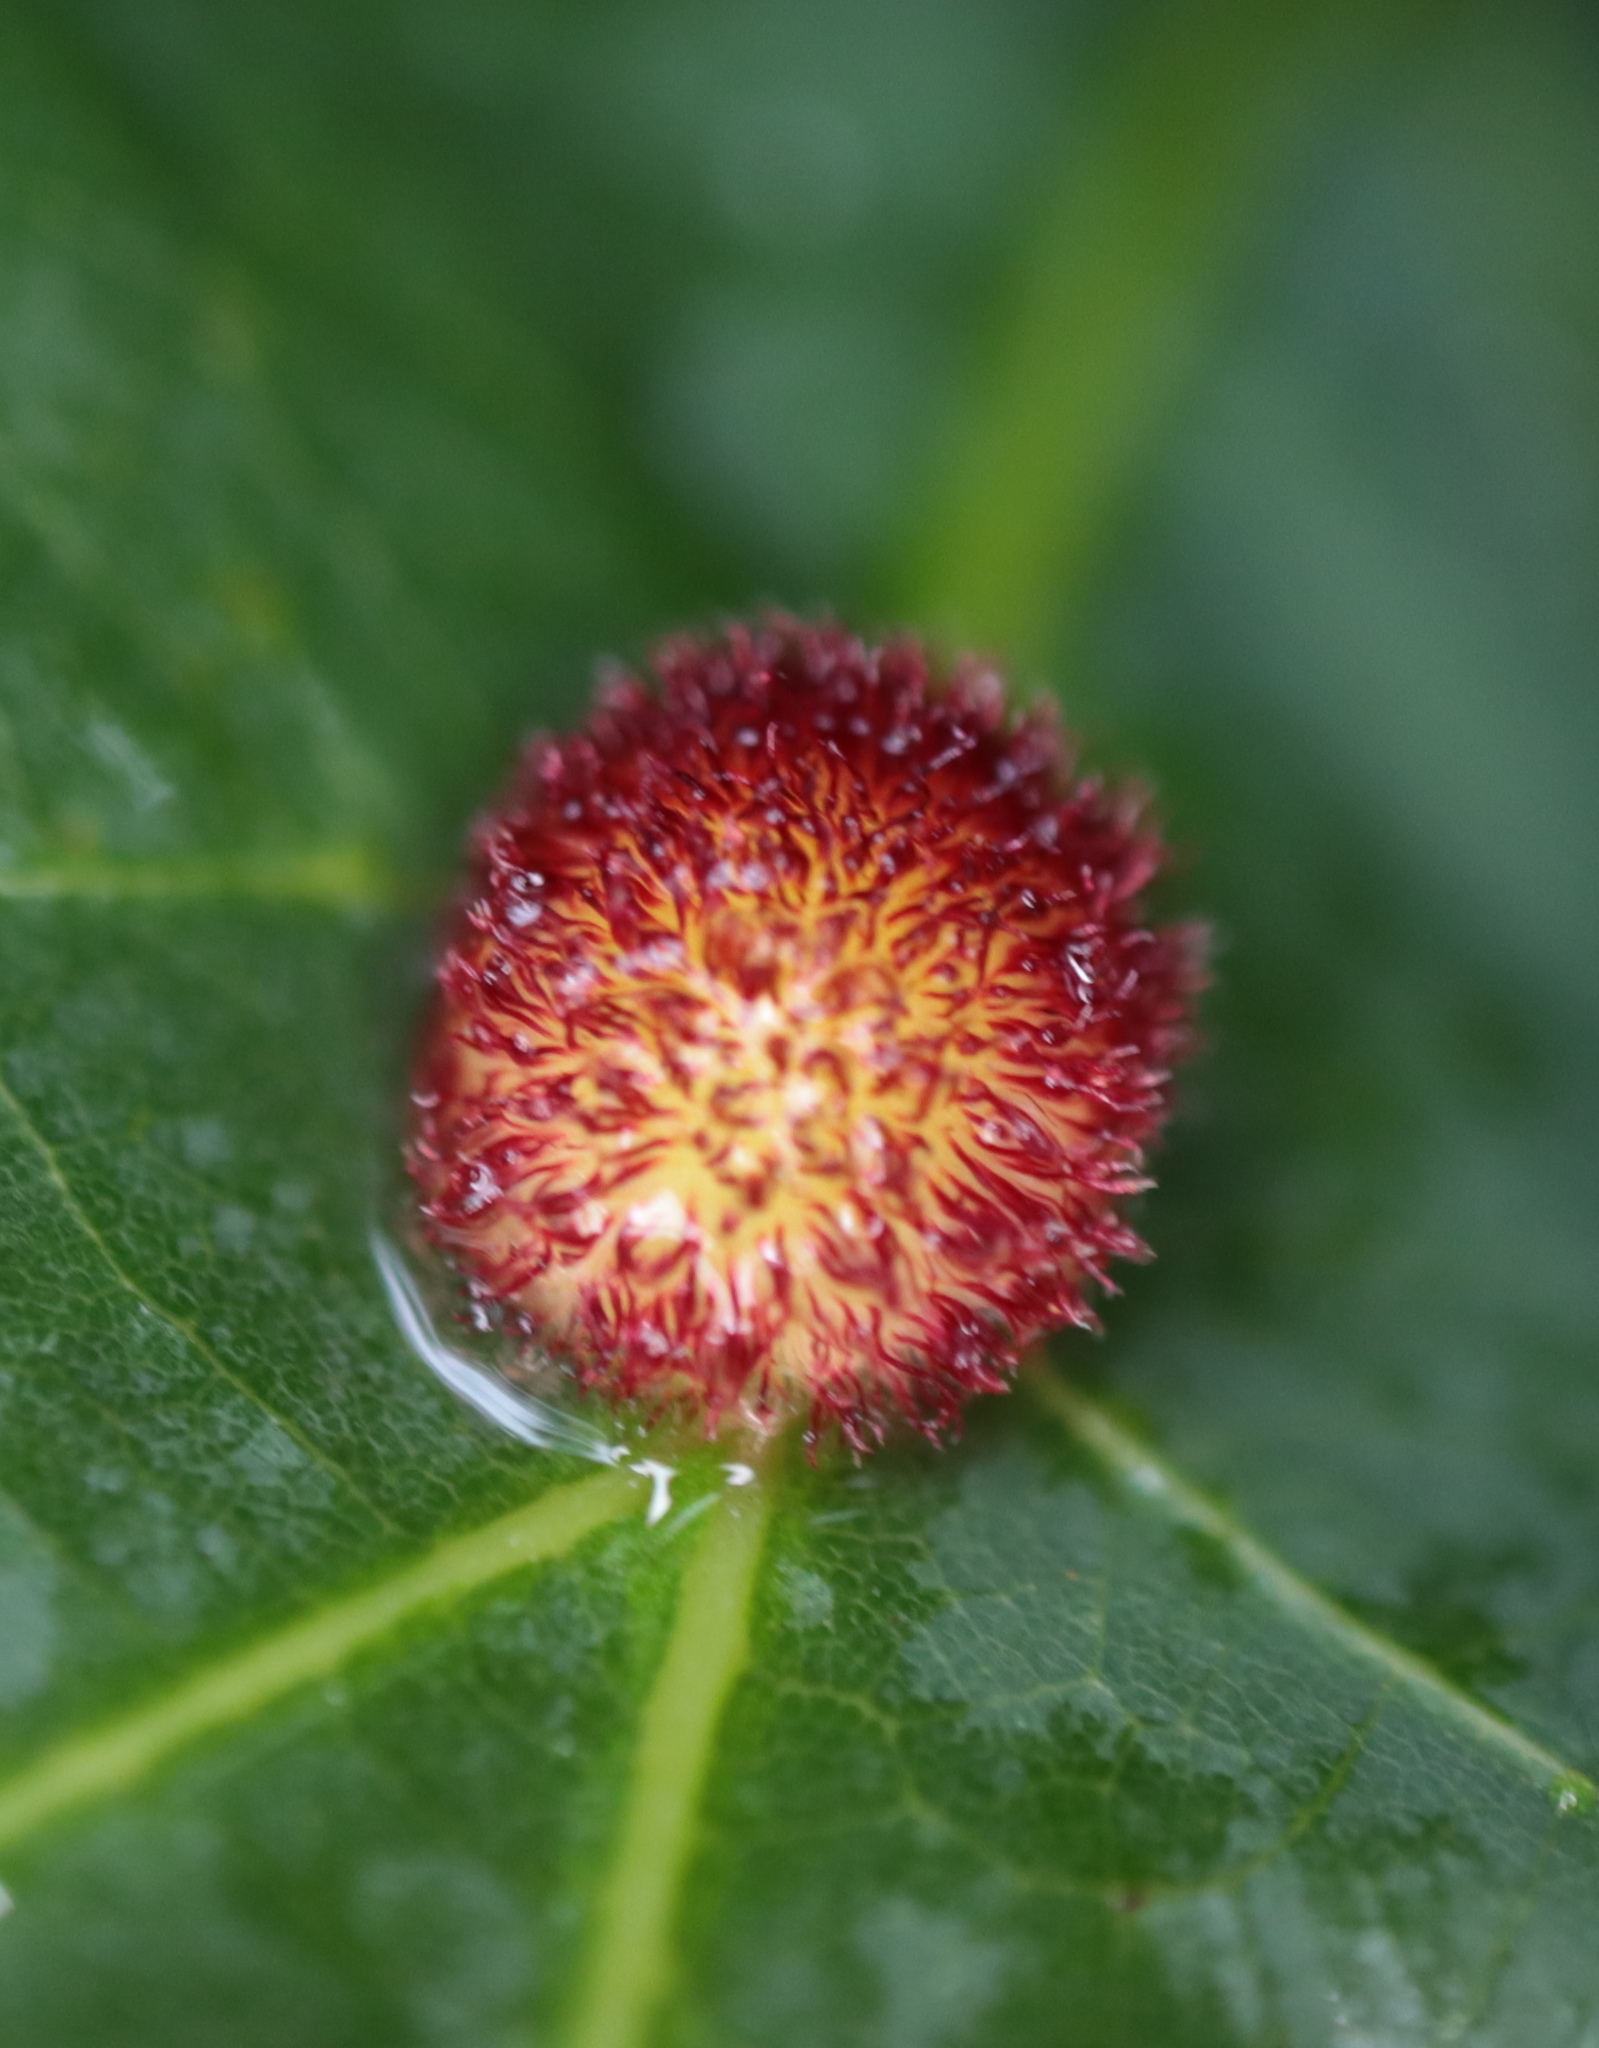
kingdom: Animalia
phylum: Arthropoda
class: Insecta
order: Hymenoptera
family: Cynipidae
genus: Acraspis
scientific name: Acraspis erinacei
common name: Hedgehog gall wasp
